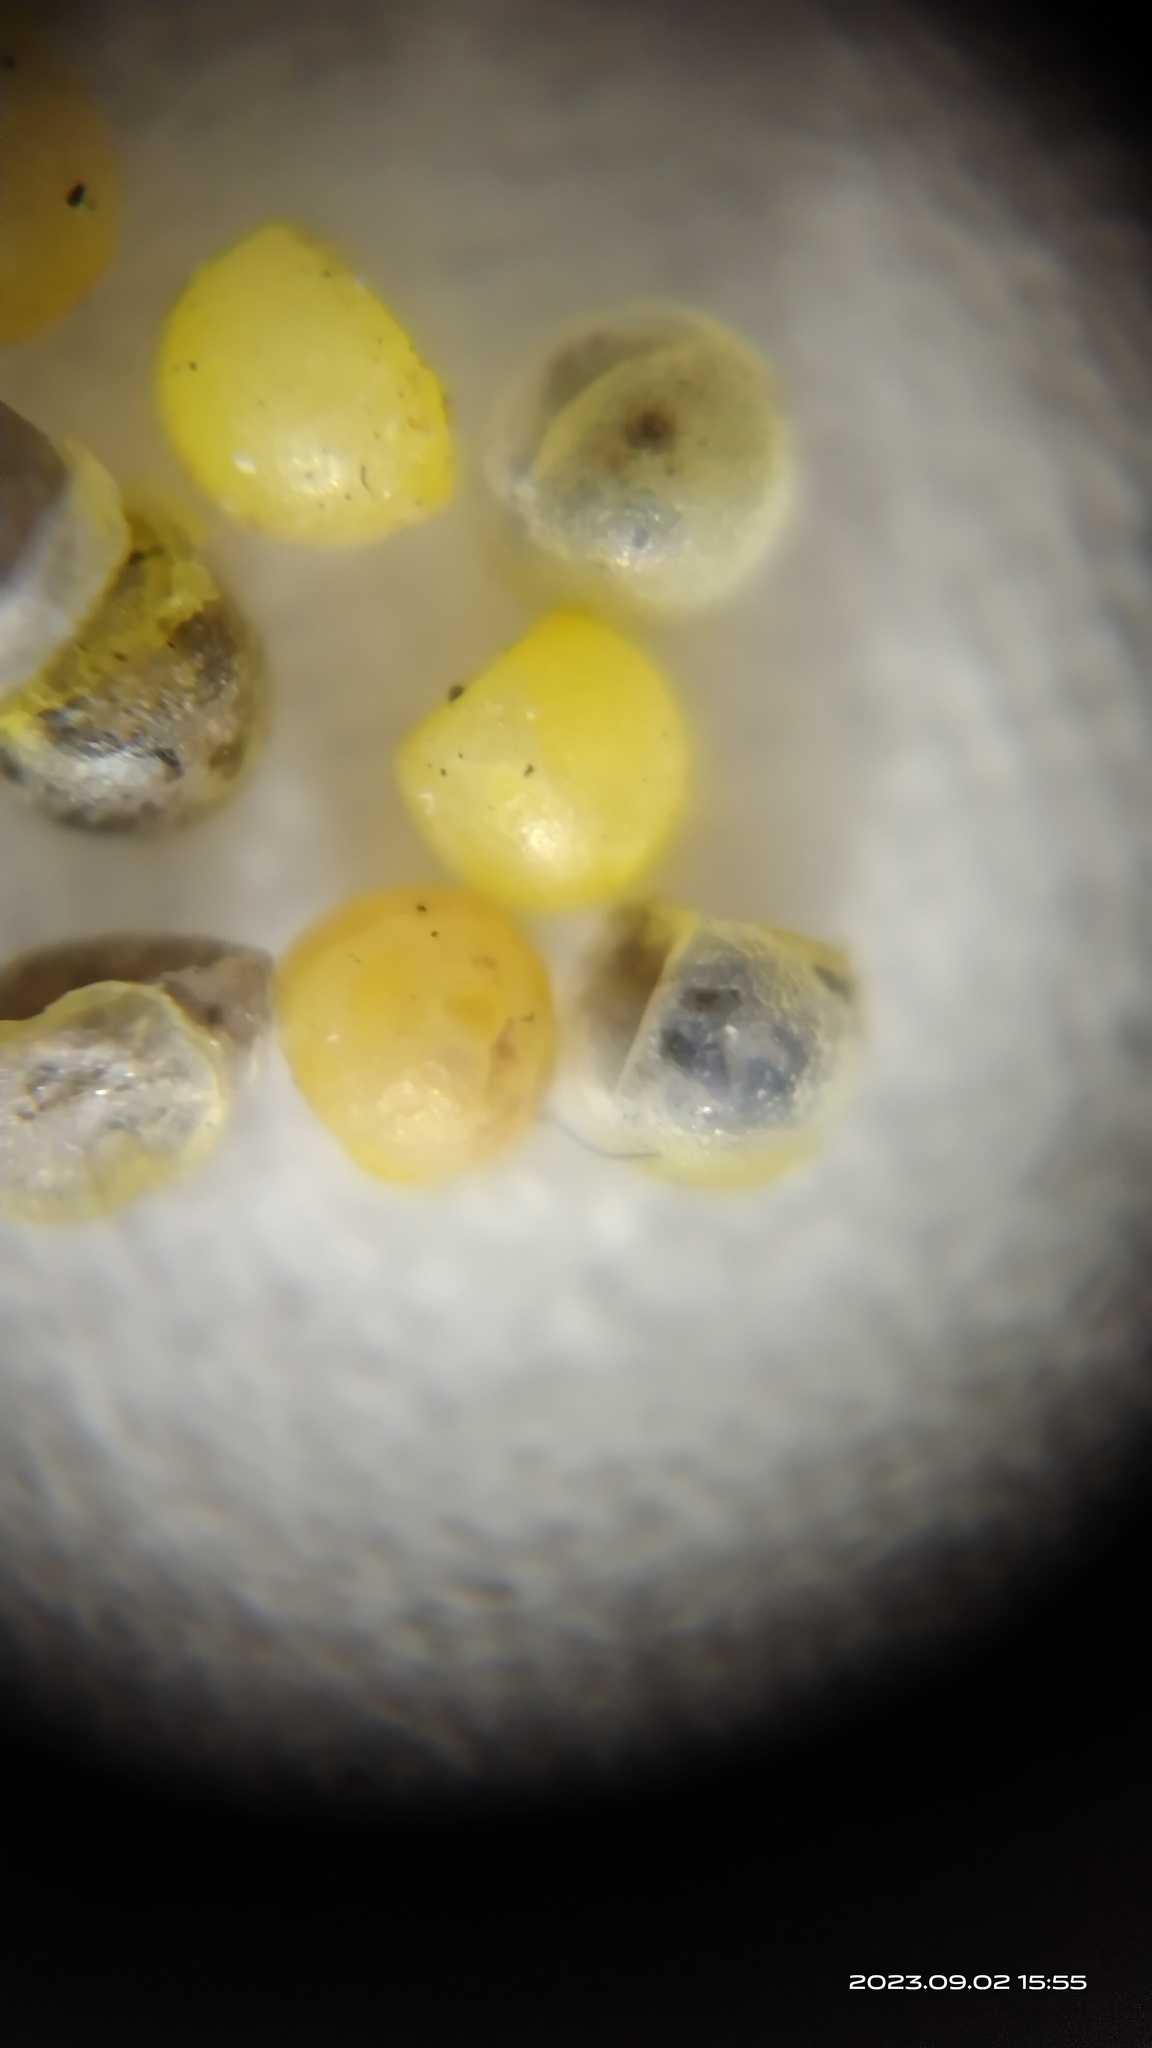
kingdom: Animalia
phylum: Arthropoda
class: Insecta
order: Lepidoptera
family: Papilionidae
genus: Papilio
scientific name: Papilio demoleus
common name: Lime butterfly
